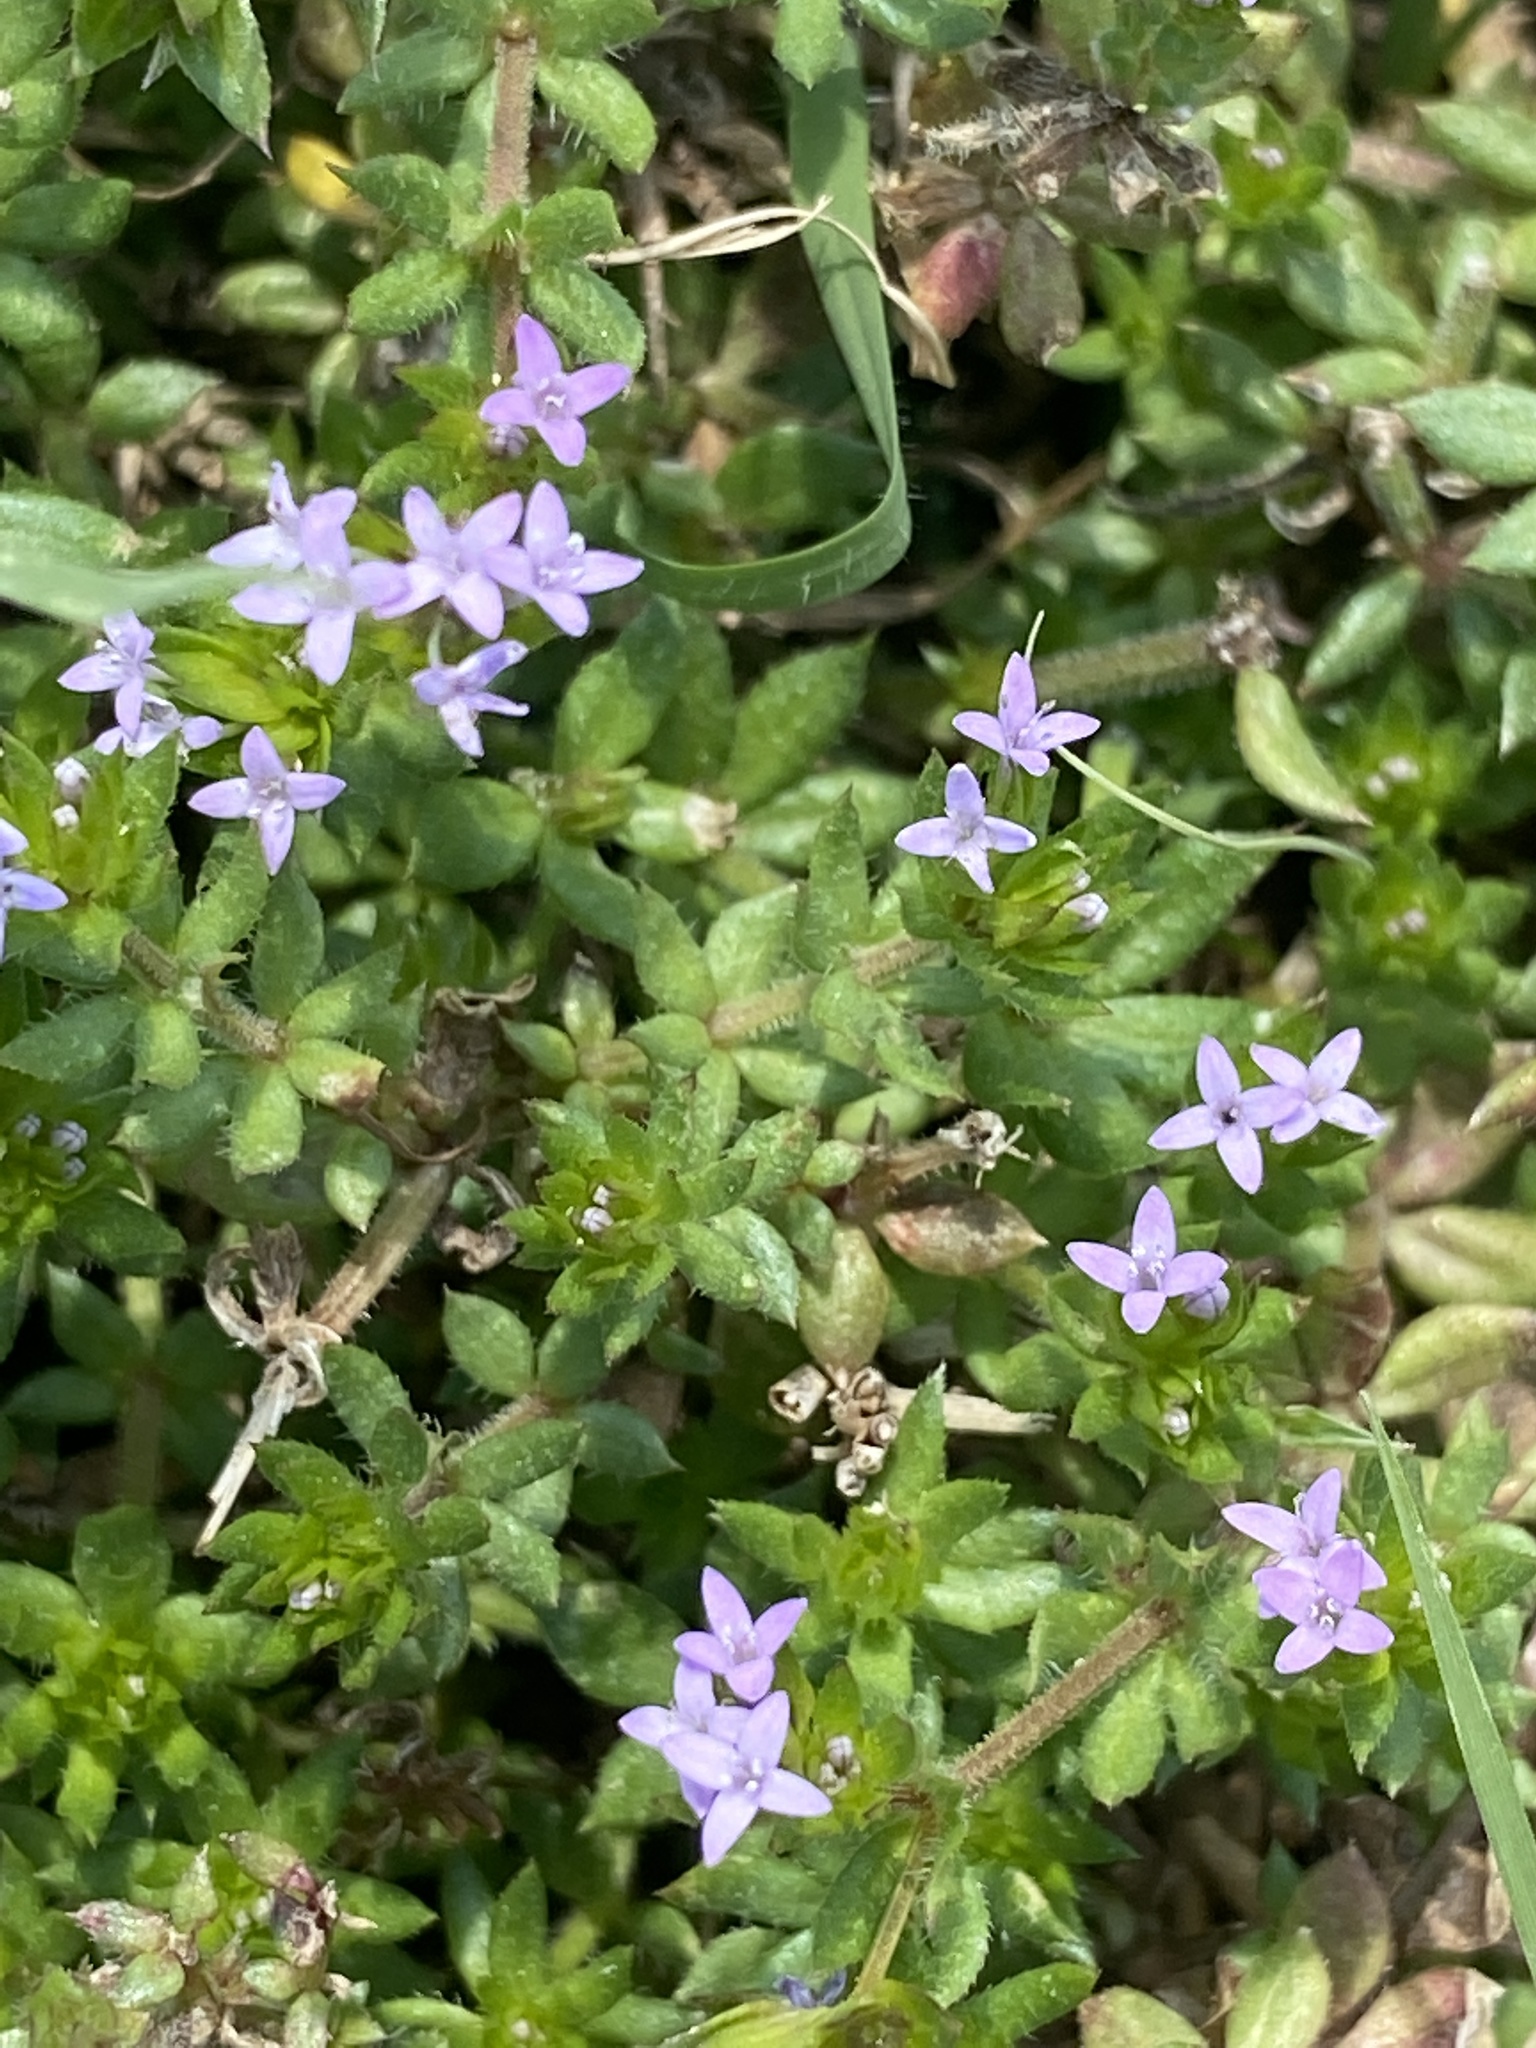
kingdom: Plantae
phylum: Tracheophyta
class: Magnoliopsida
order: Gentianales
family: Rubiaceae
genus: Sherardia
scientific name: Sherardia arvensis
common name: Field madder
